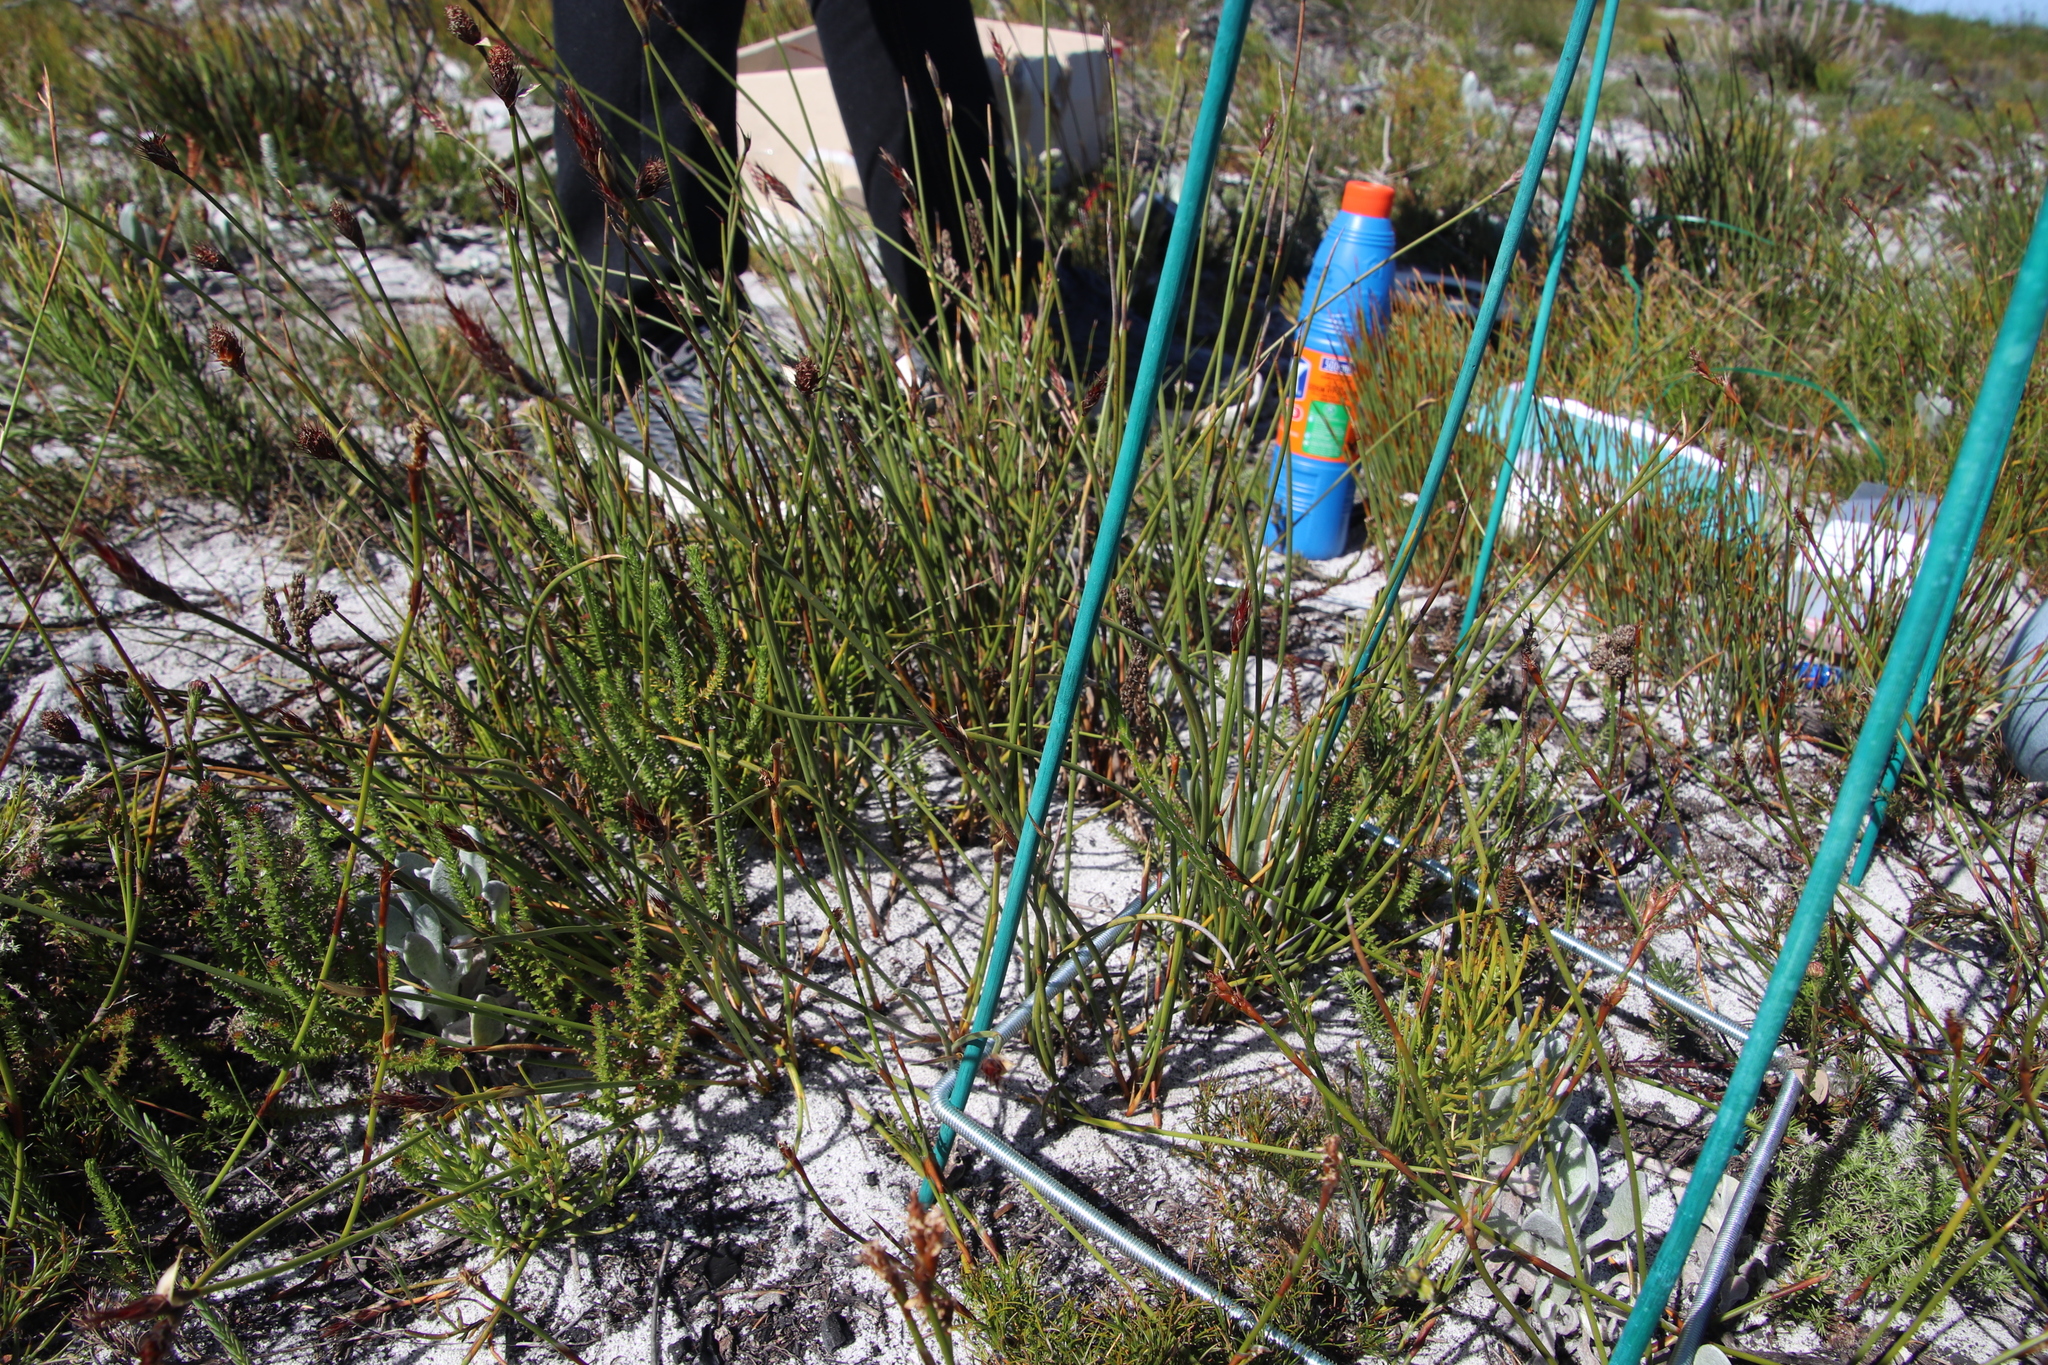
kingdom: Plantae
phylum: Tracheophyta
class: Liliopsida
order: Poales
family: Restionaceae
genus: Hypodiscus
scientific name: Hypodiscus alboaristatus
